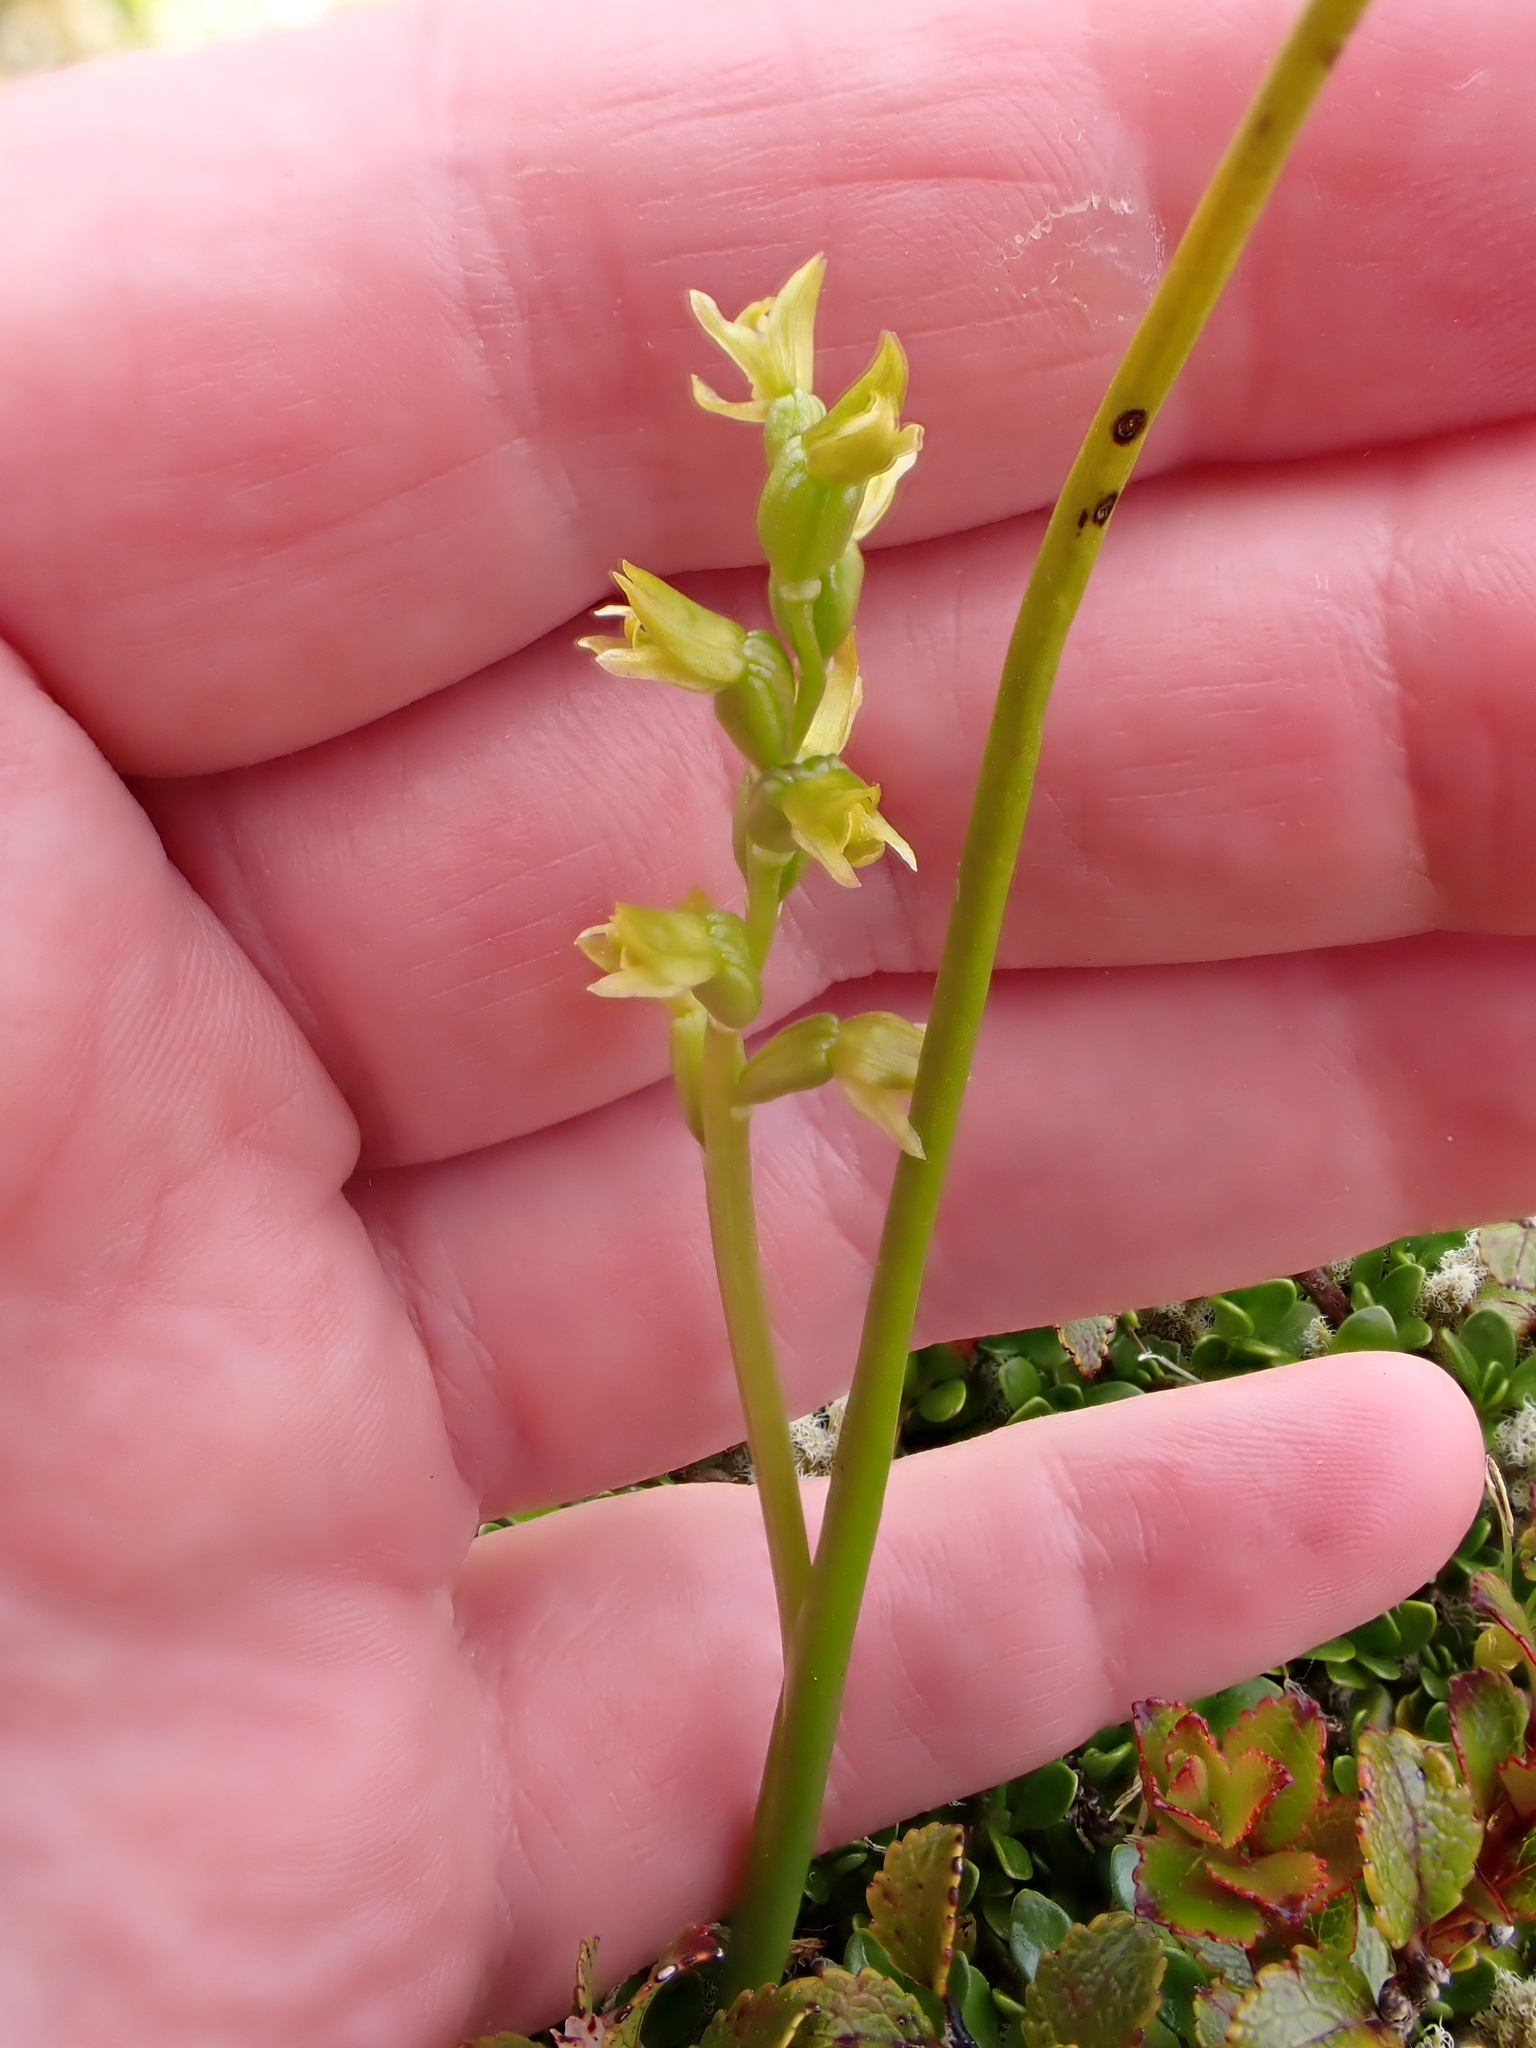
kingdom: Plantae
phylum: Tracheophyta
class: Liliopsida
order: Asparagales
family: Orchidaceae
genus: Prasophyllum
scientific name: Prasophyllum colensoi
